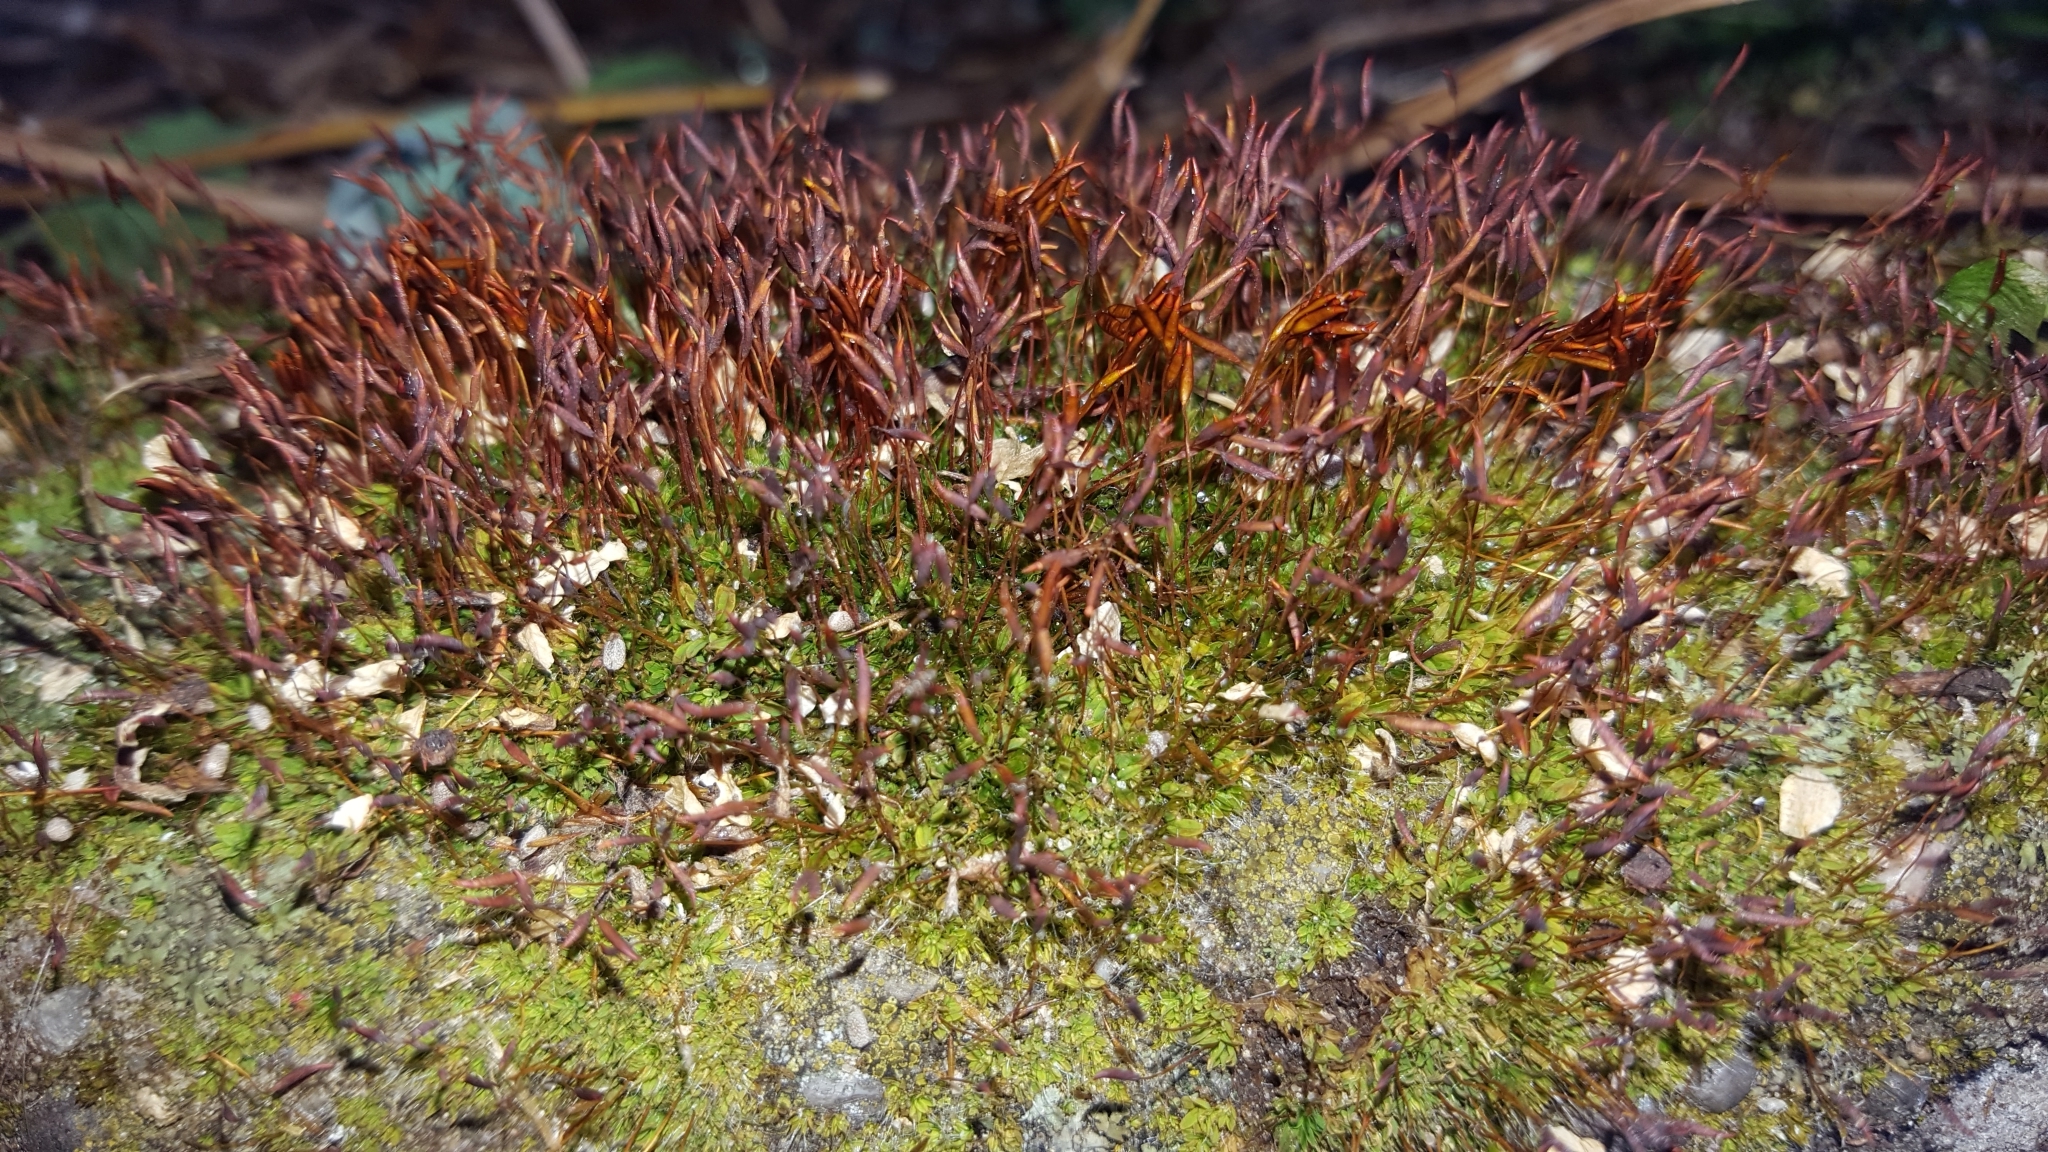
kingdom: Plantae
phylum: Bryophyta
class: Bryopsida
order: Pottiales
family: Pottiaceae
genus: Tortula
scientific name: Tortula muralis
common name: Wall screw-moss
